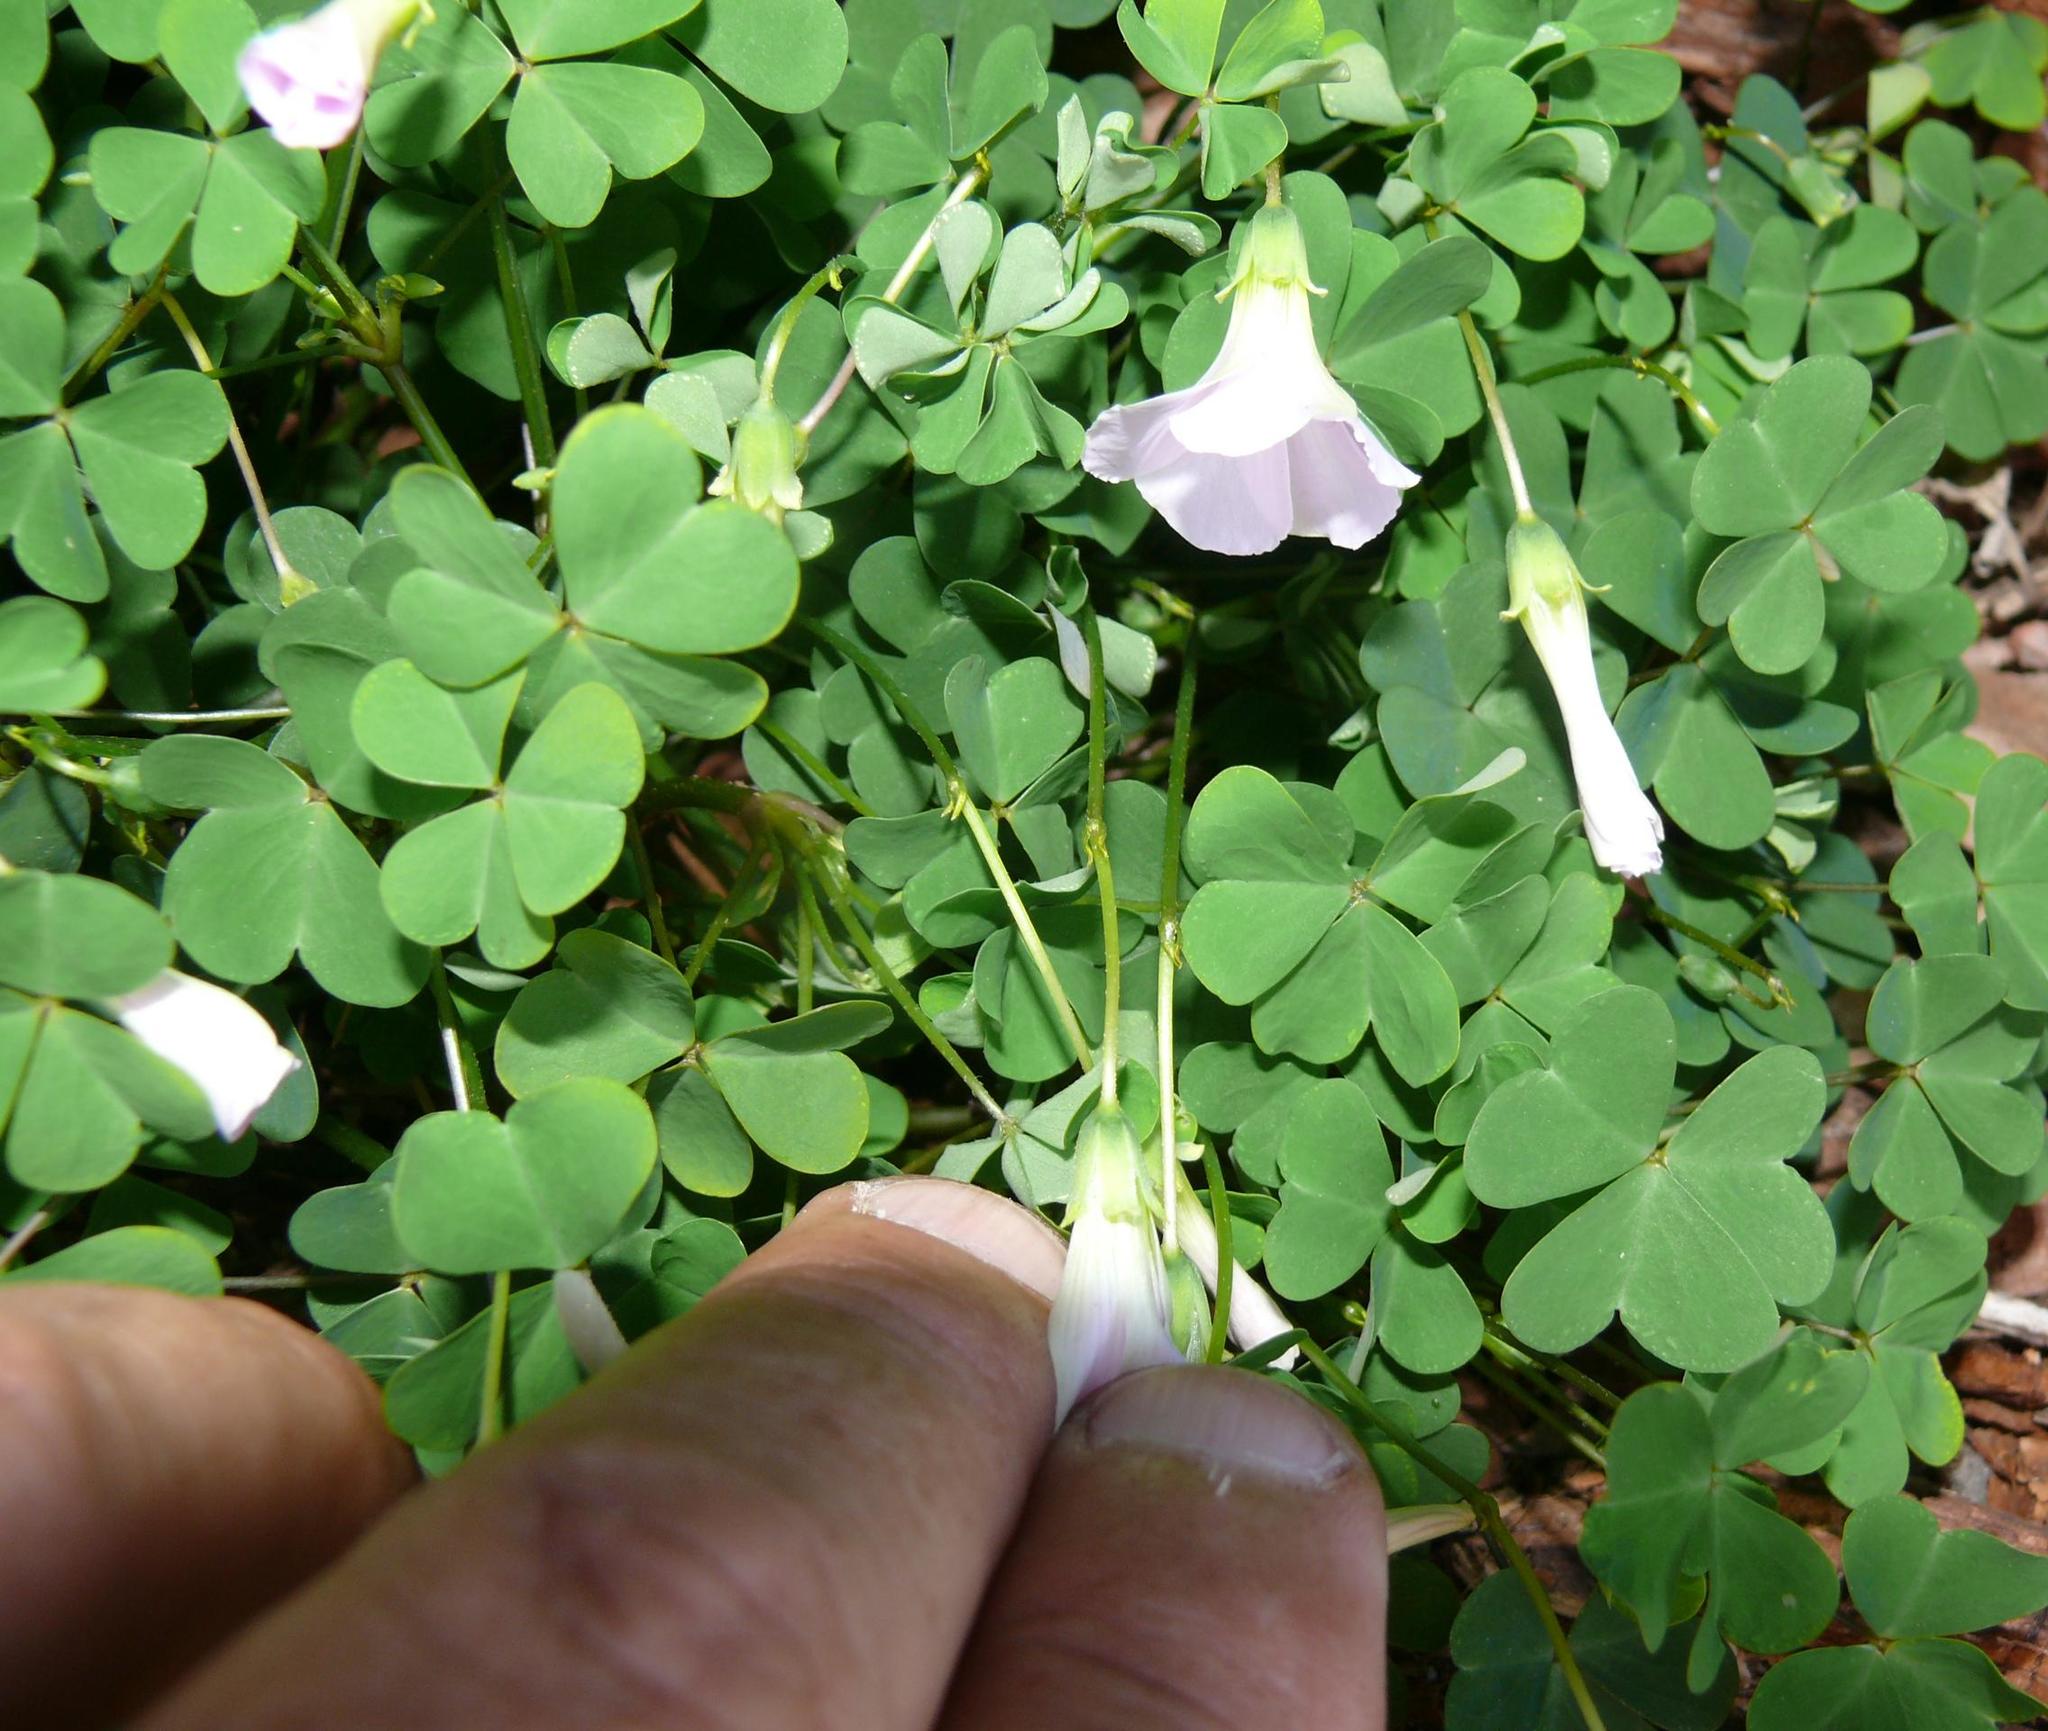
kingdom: Plantae
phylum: Tracheophyta
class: Magnoliopsida
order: Oxalidales
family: Oxalidaceae
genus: Oxalis
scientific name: Oxalis incarnata
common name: Pale pink-sorrel
